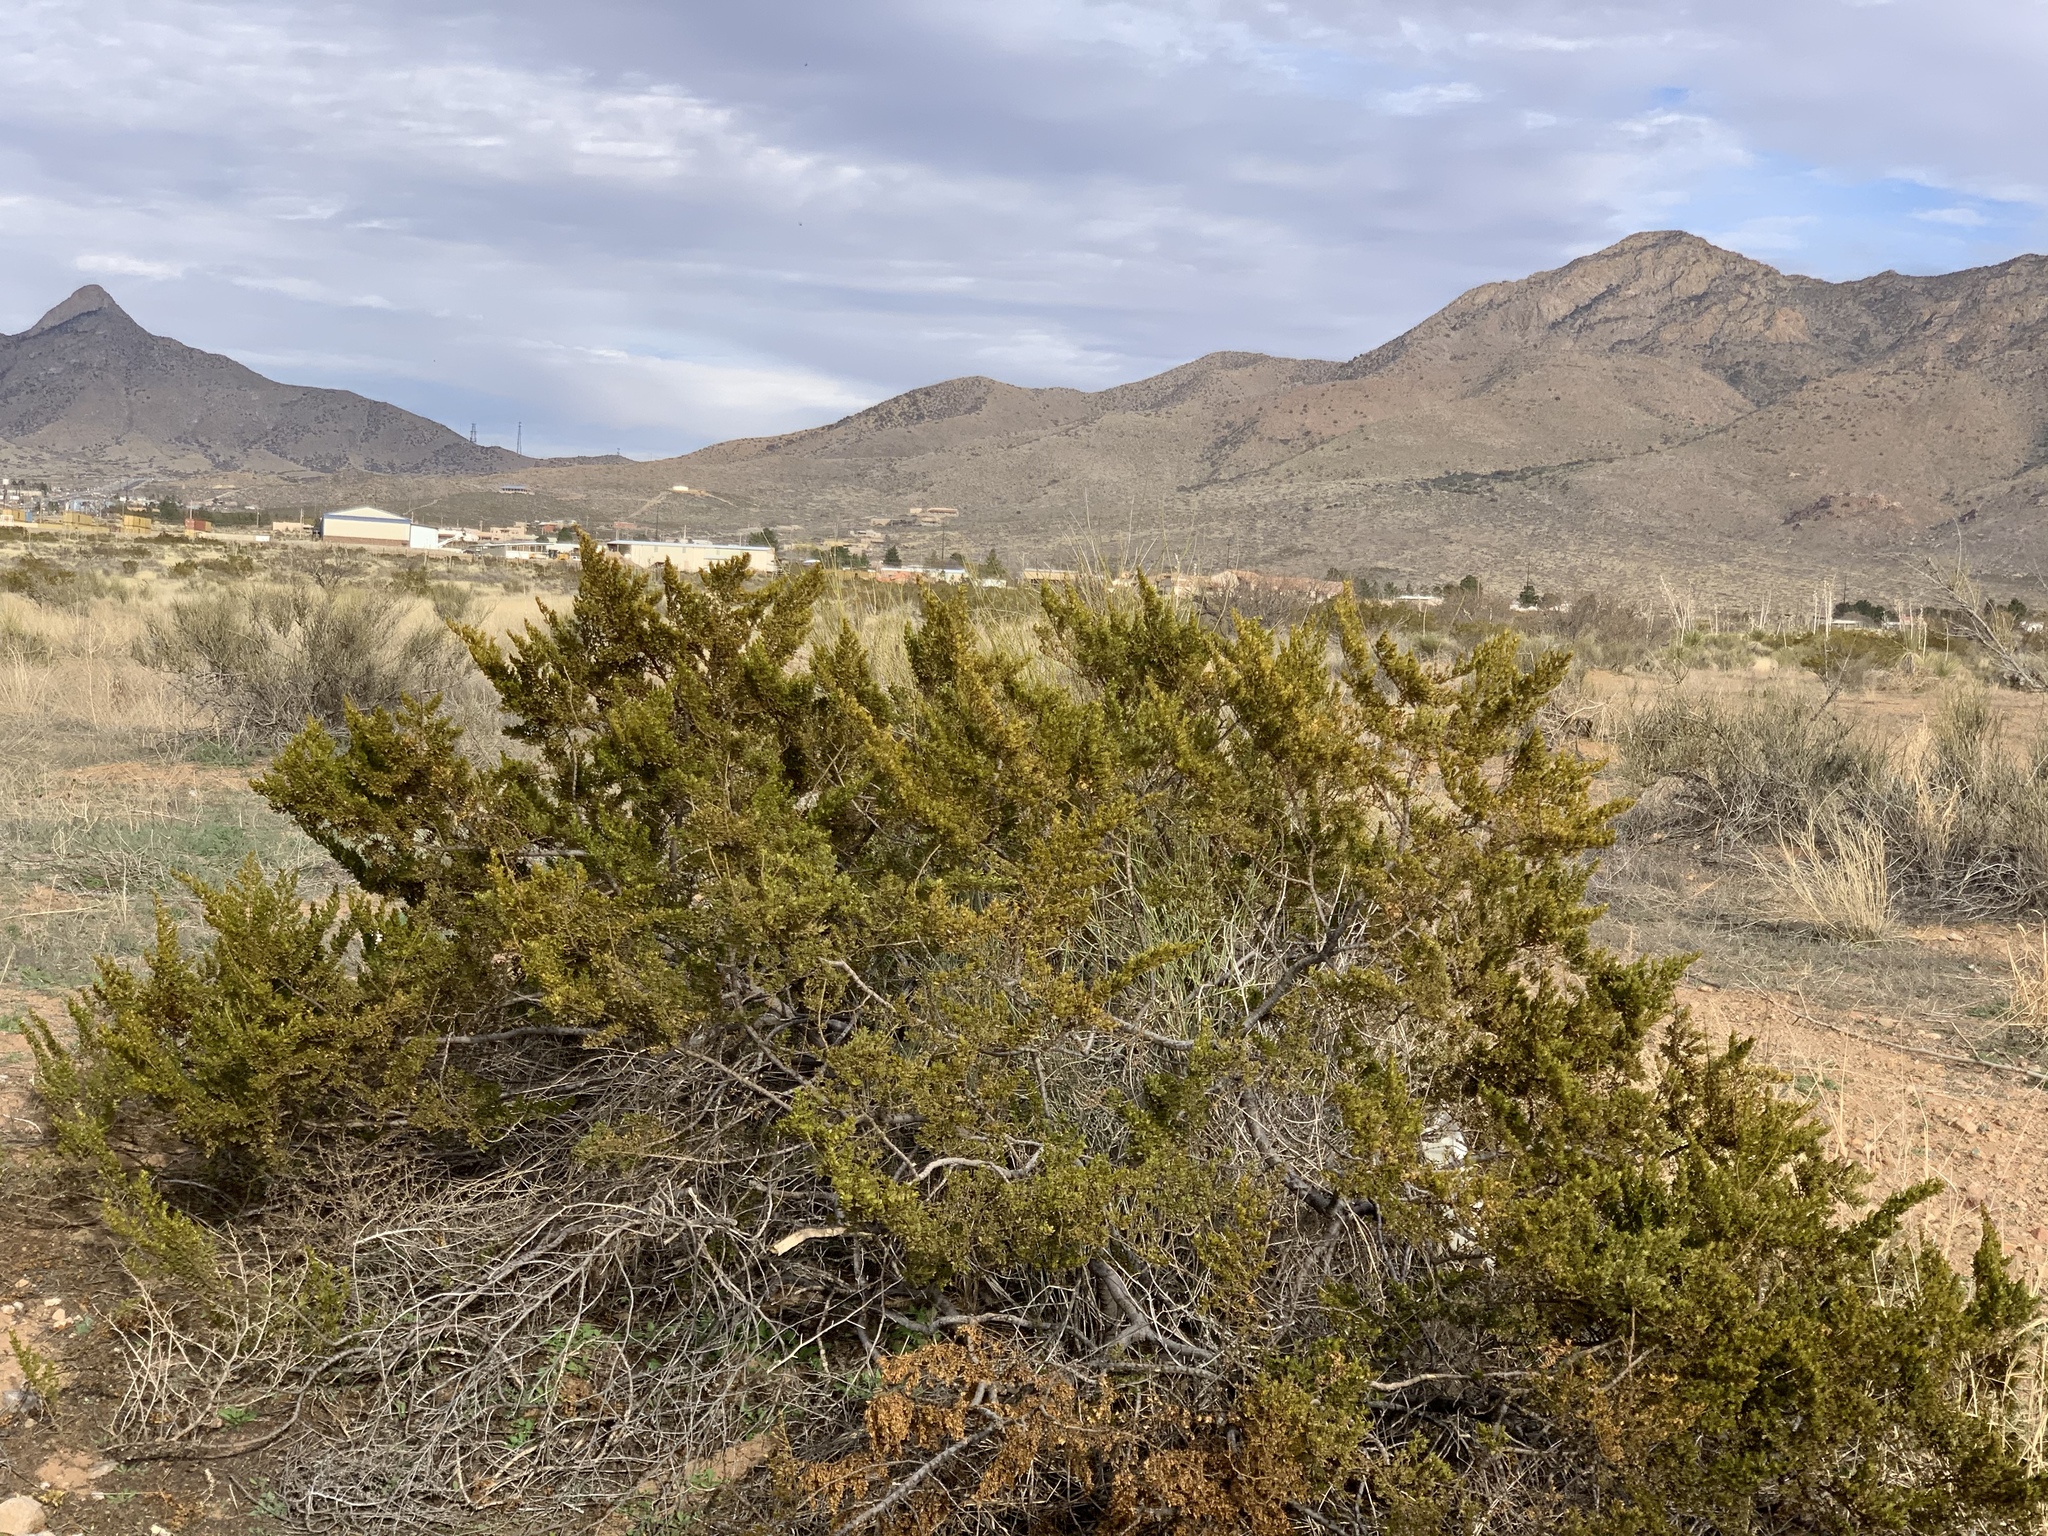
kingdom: Plantae
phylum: Tracheophyta
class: Magnoliopsida
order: Zygophyllales
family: Zygophyllaceae
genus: Larrea
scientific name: Larrea tridentata
